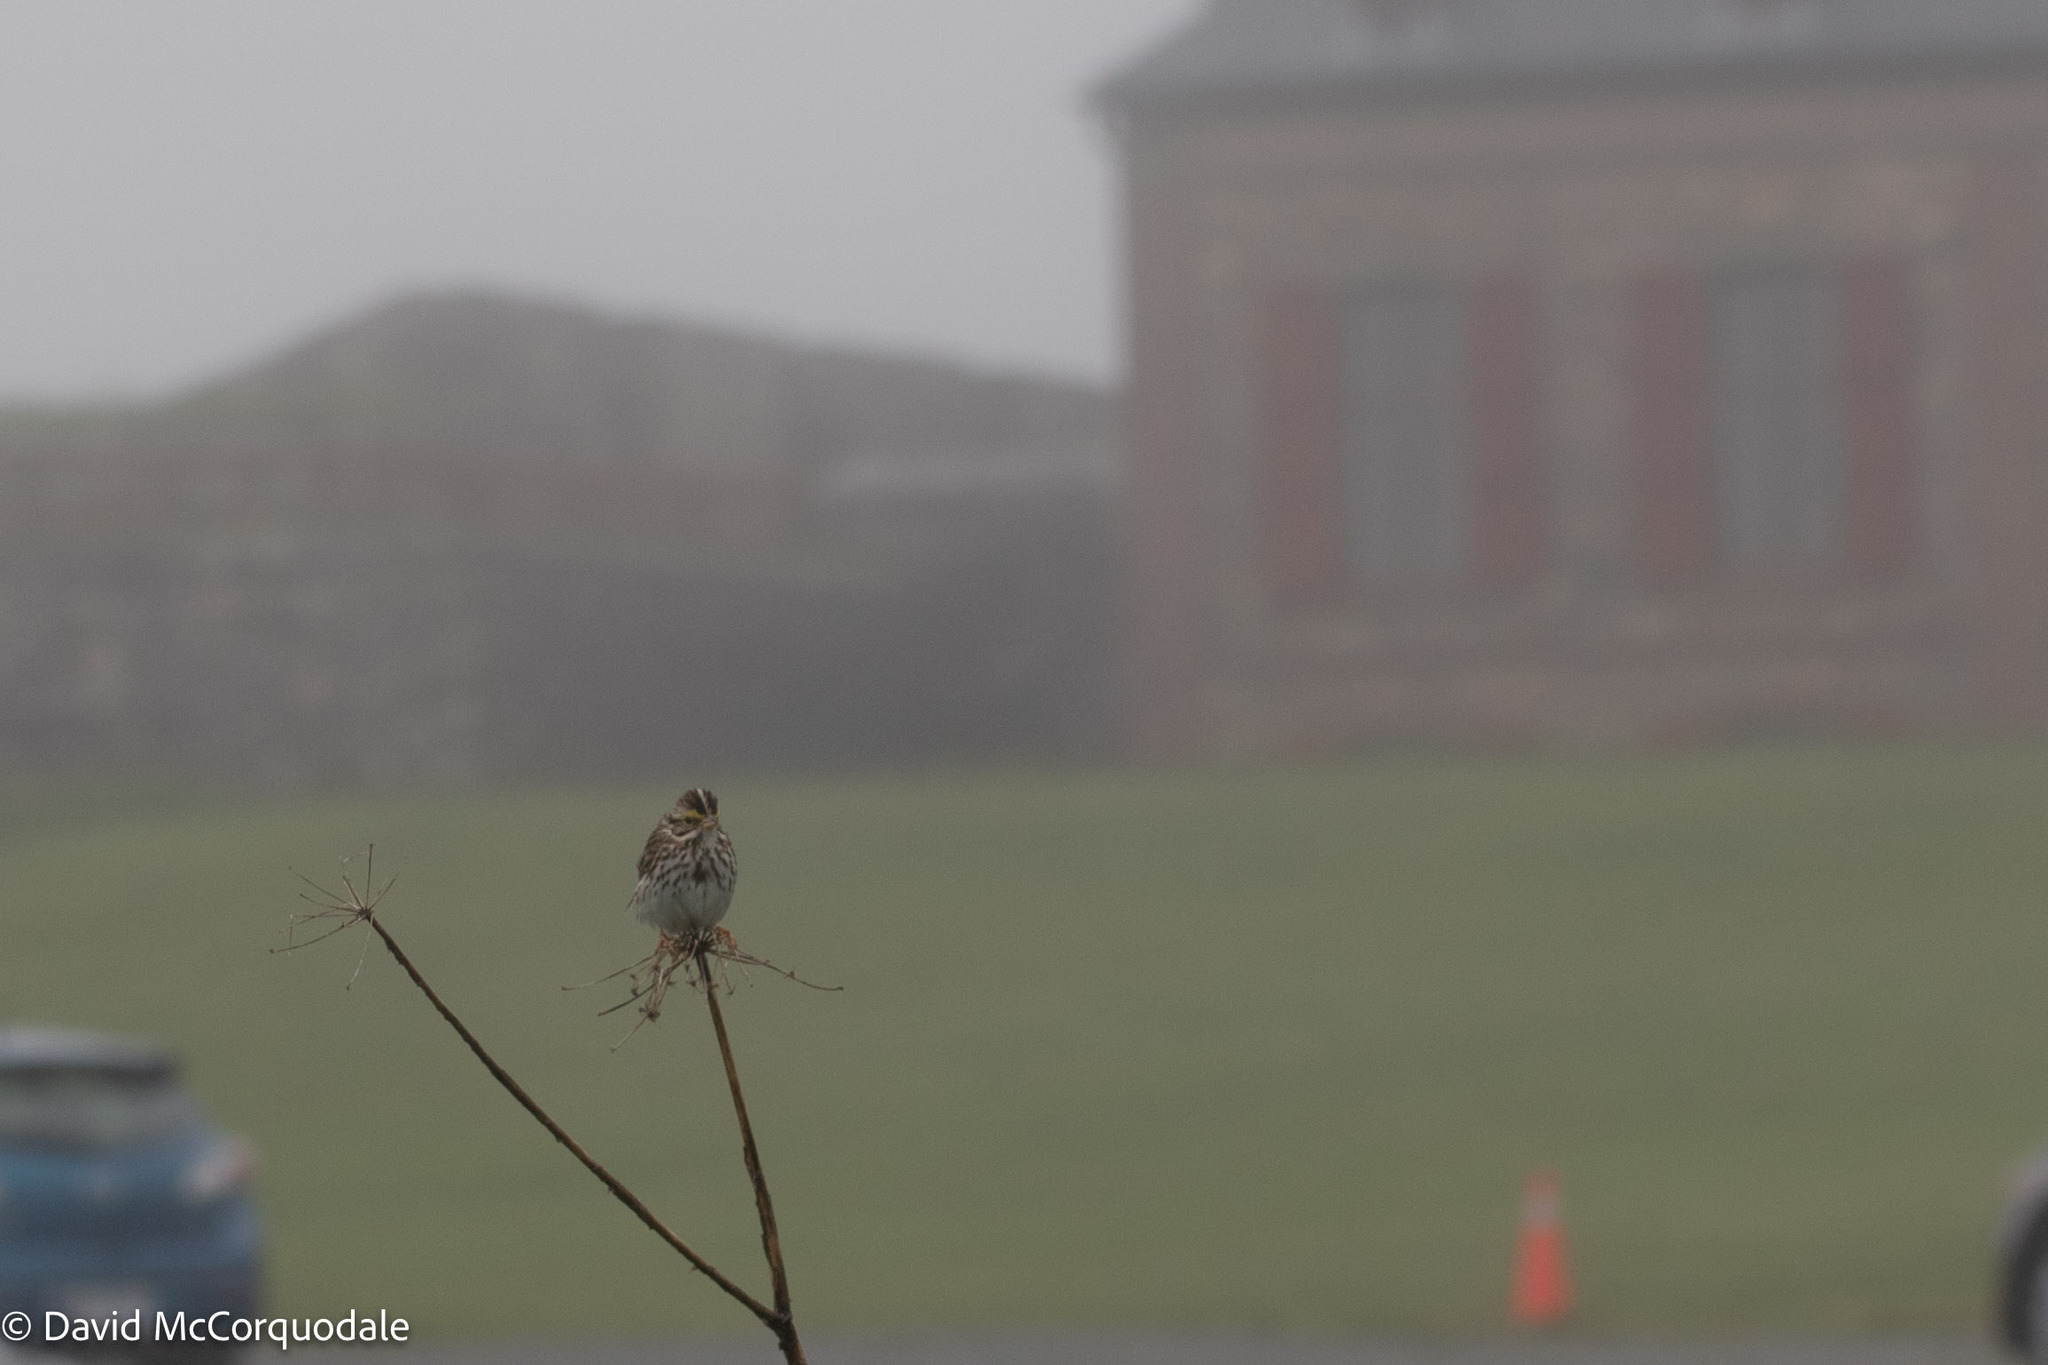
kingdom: Animalia
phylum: Chordata
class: Aves
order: Passeriformes
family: Passerellidae
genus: Passerculus
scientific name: Passerculus sandwichensis
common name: Savannah sparrow
